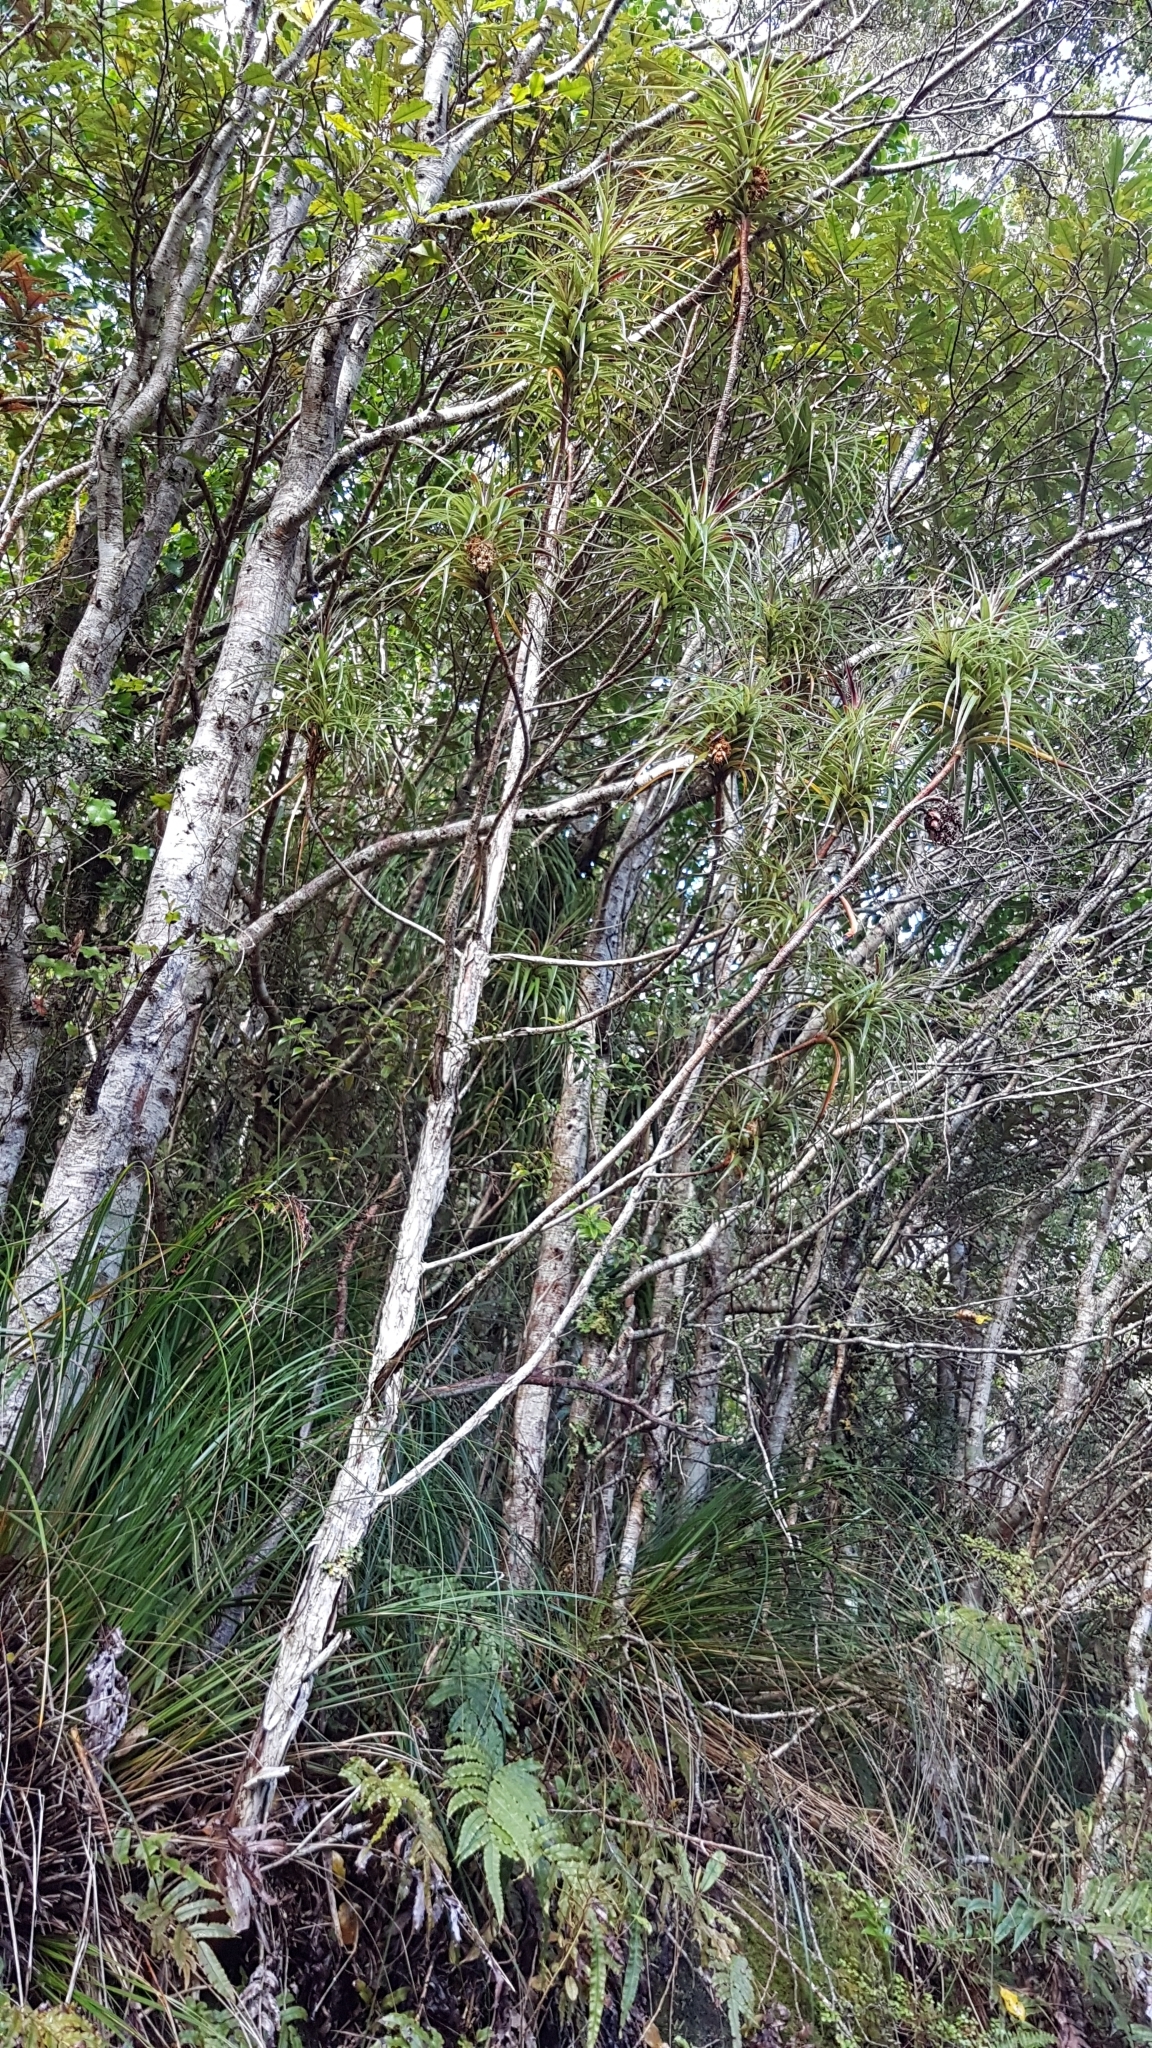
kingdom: Plantae
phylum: Tracheophyta
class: Magnoliopsida
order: Ericales
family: Ericaceae
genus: Dracophyllum
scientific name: Dracophyllum townsonii
